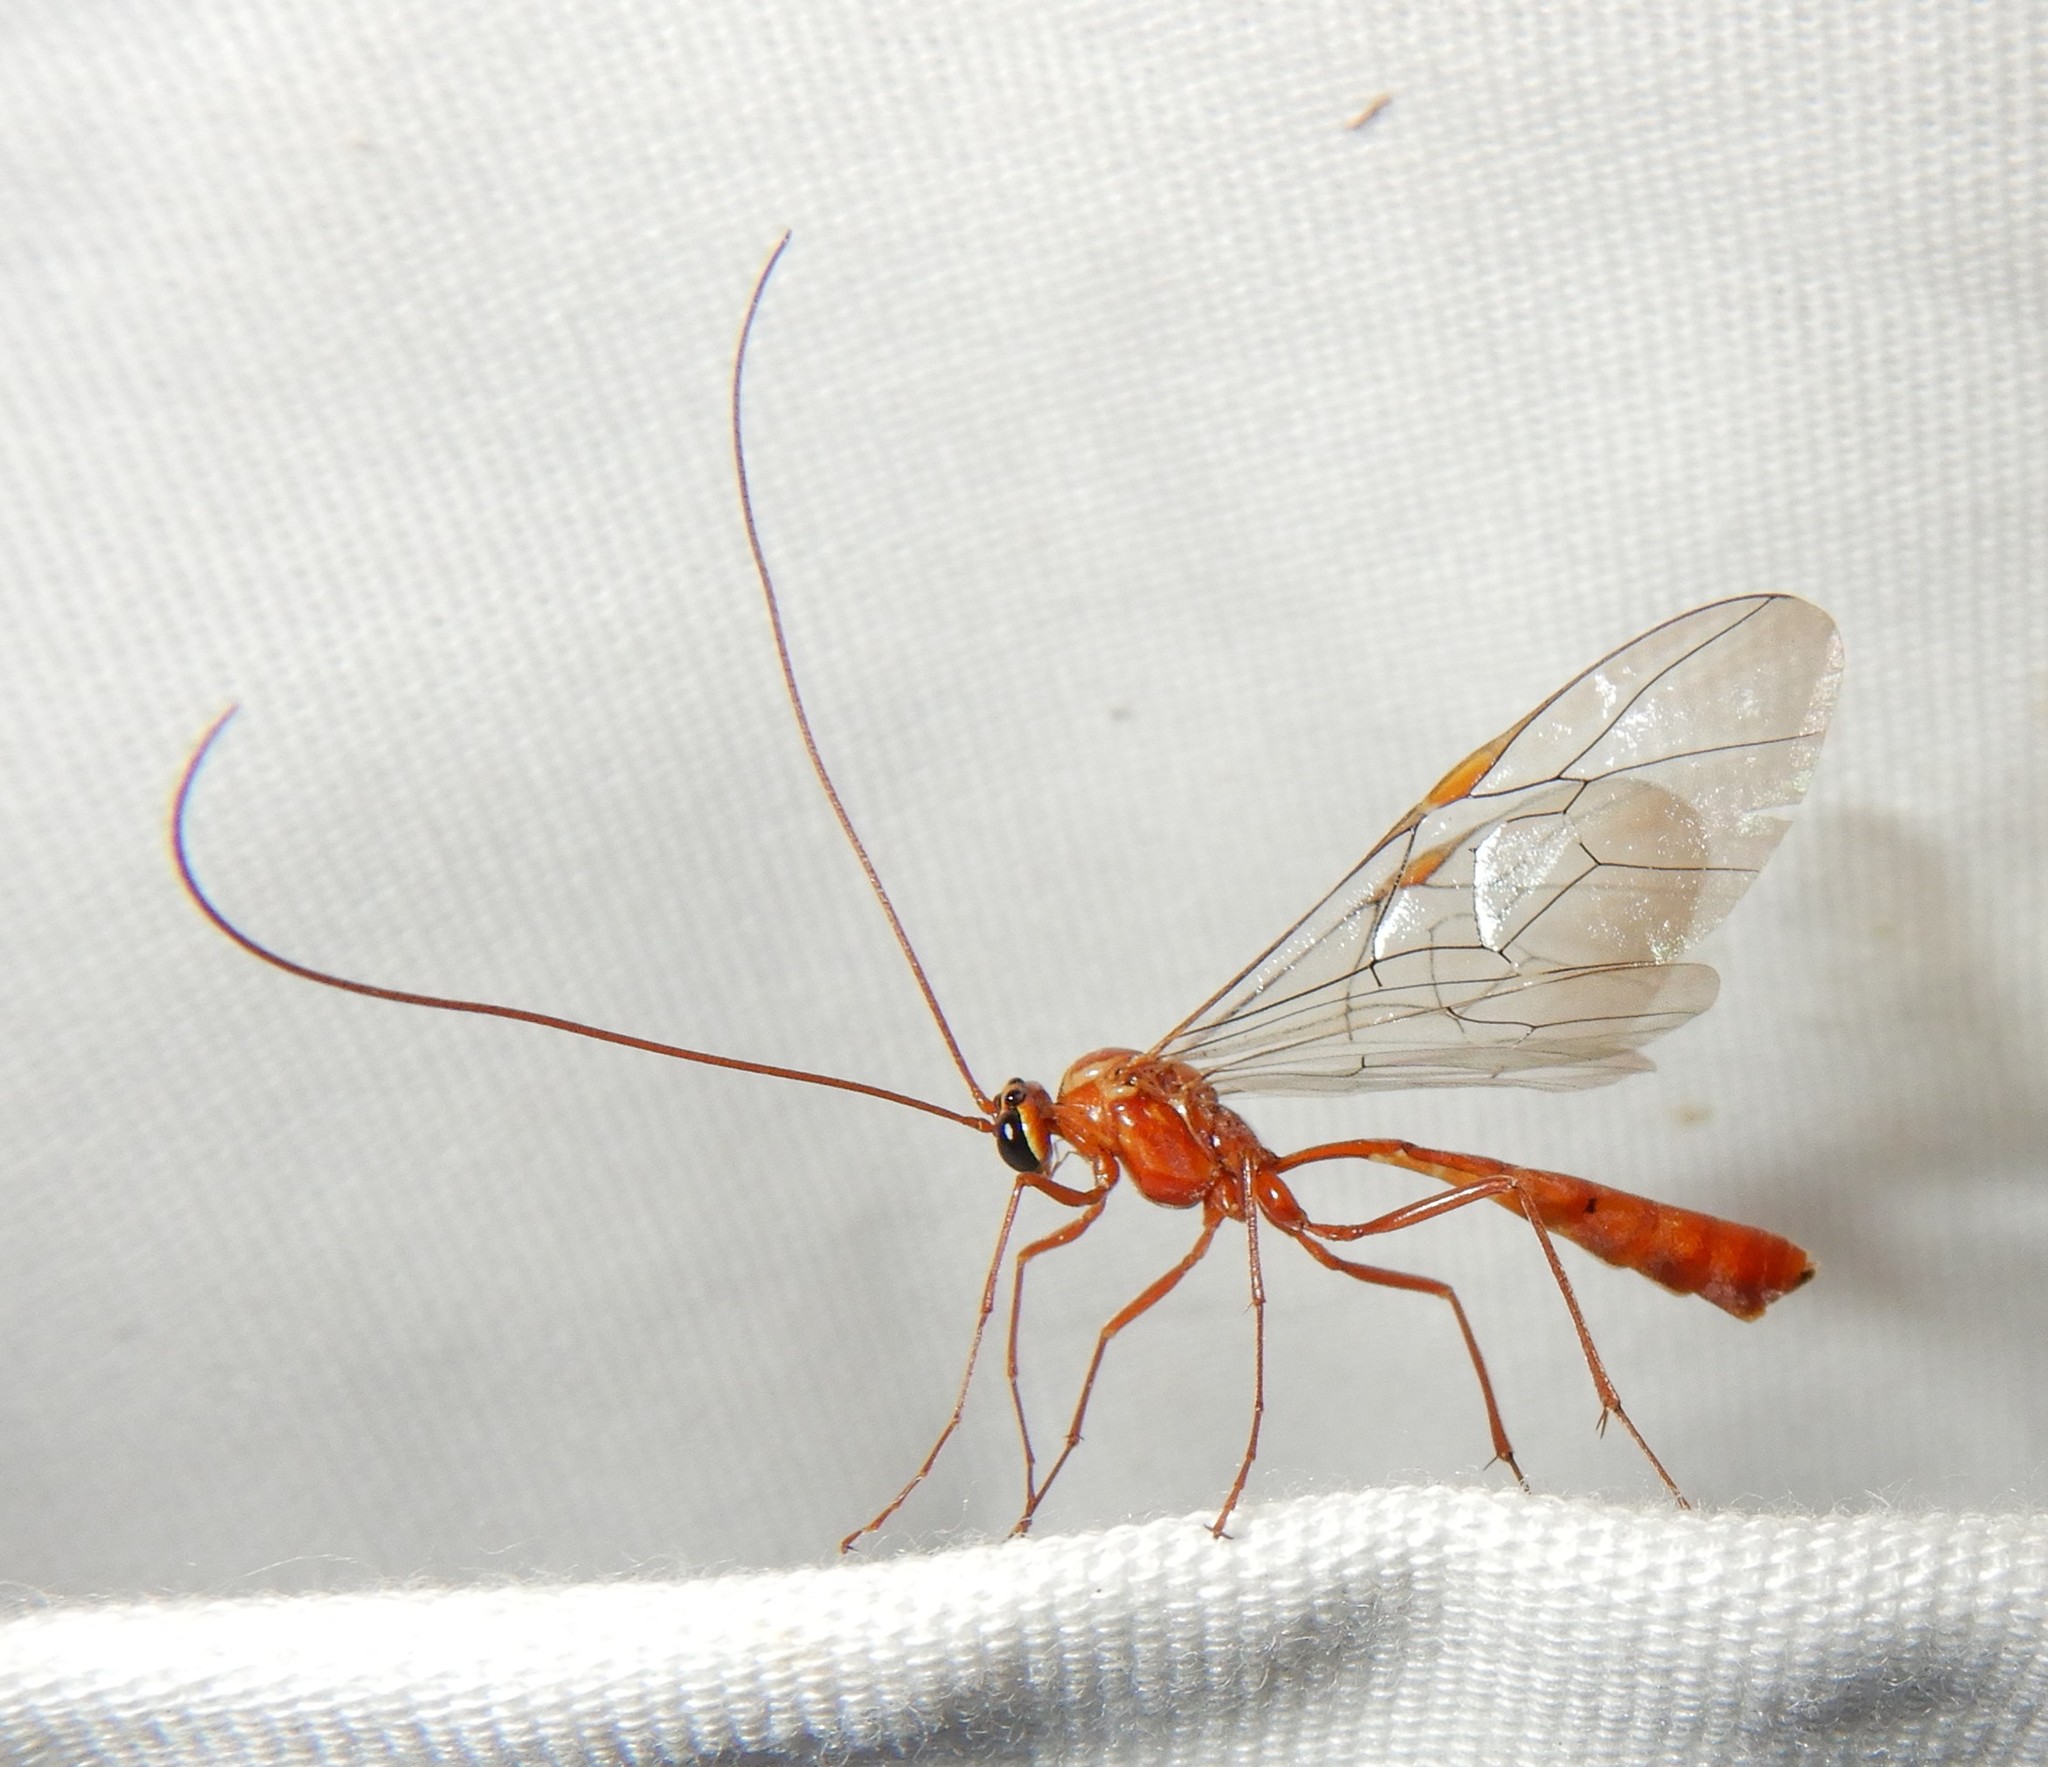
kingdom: Animalia
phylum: Arthropoda
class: Insecta
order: Hymenoptera
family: Ichneumonidae
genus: Ophion
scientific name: Ophion
